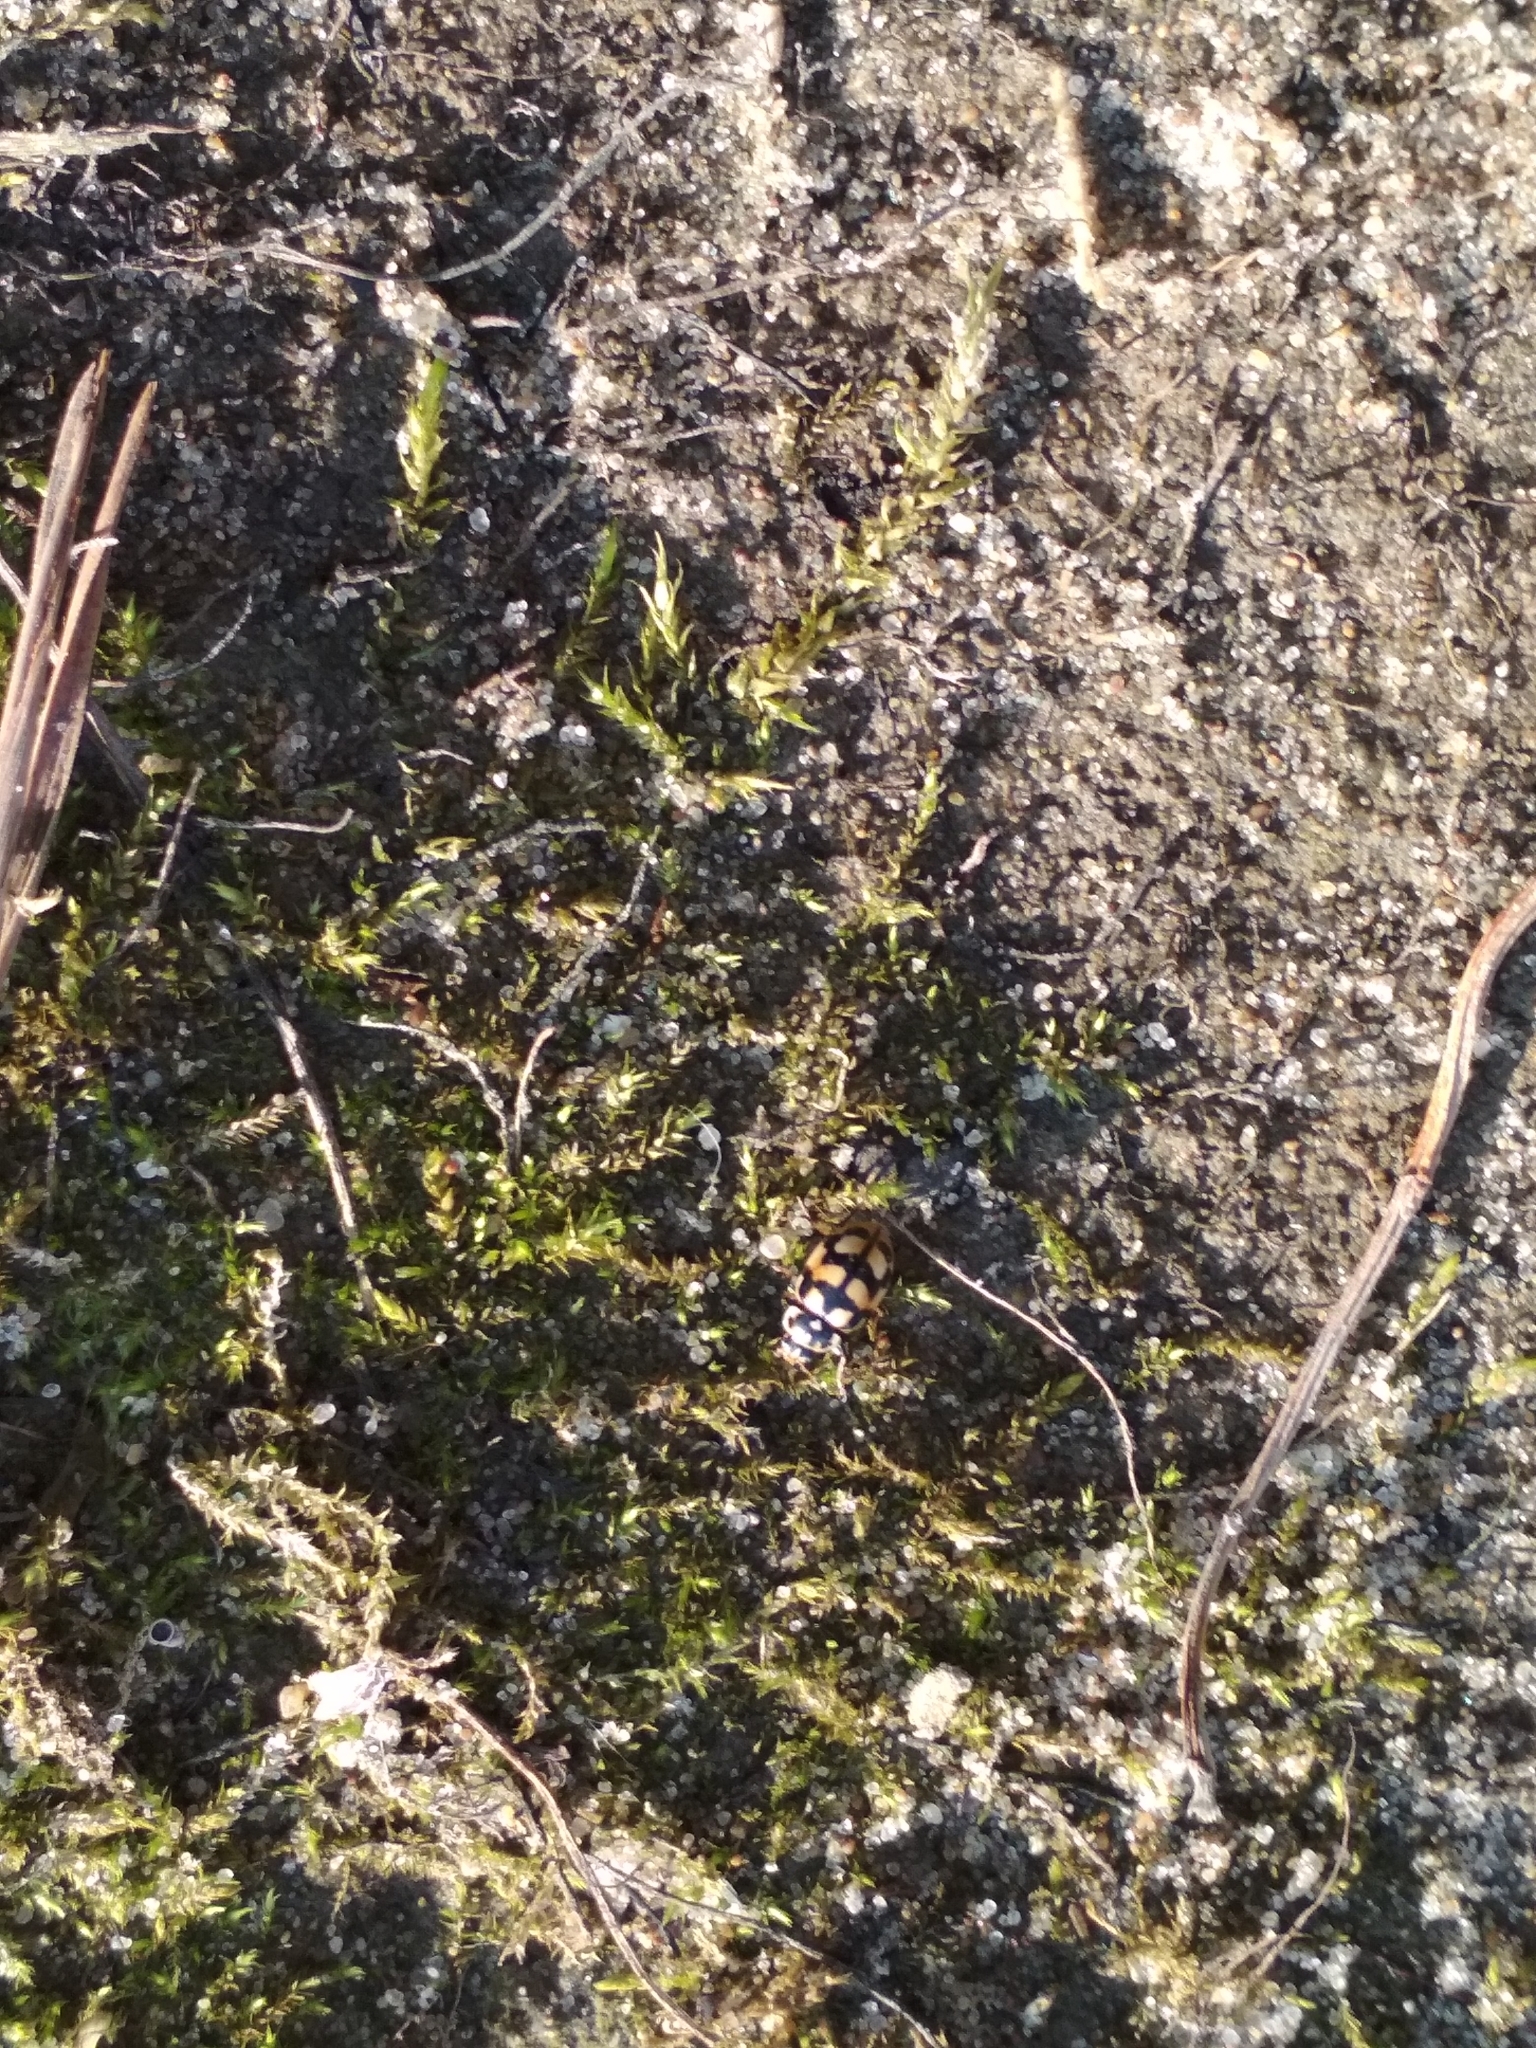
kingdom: Animalia
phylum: Arthropoda
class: Insecta
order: Coleoptera
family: Coccinellidae
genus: Hippodamia
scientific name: Hippodamia arctica
